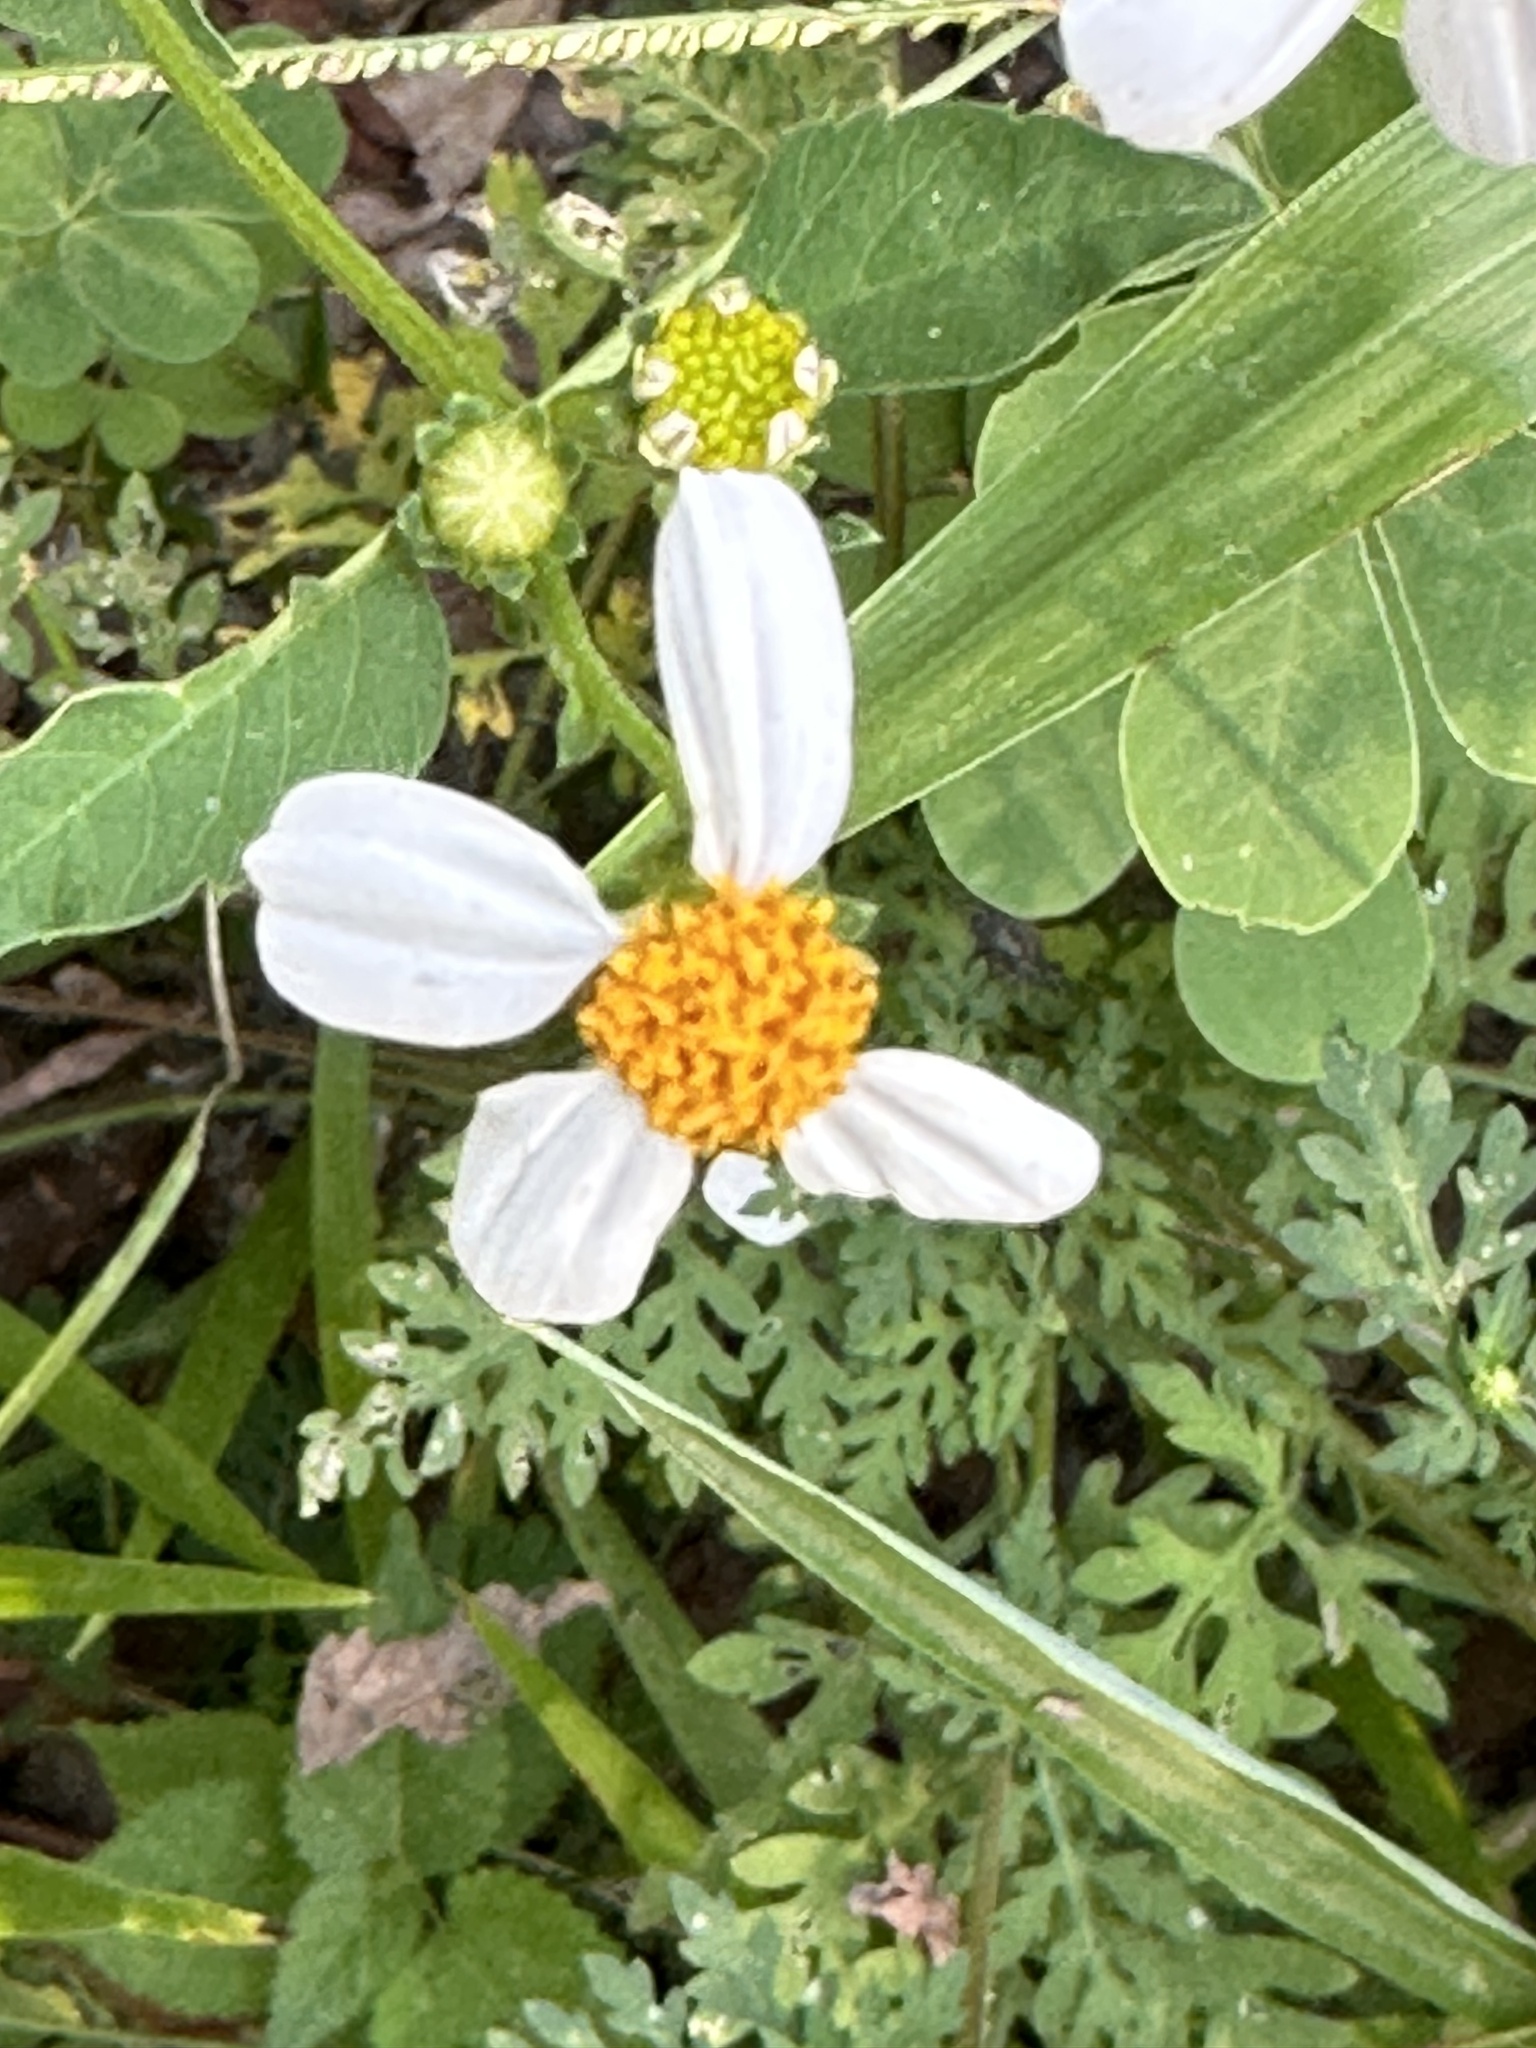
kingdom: Plantae
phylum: Tracheophyta
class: Magnoliopsida
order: Asterales
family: Asteraceae
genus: Bidens
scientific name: Bidens alba
